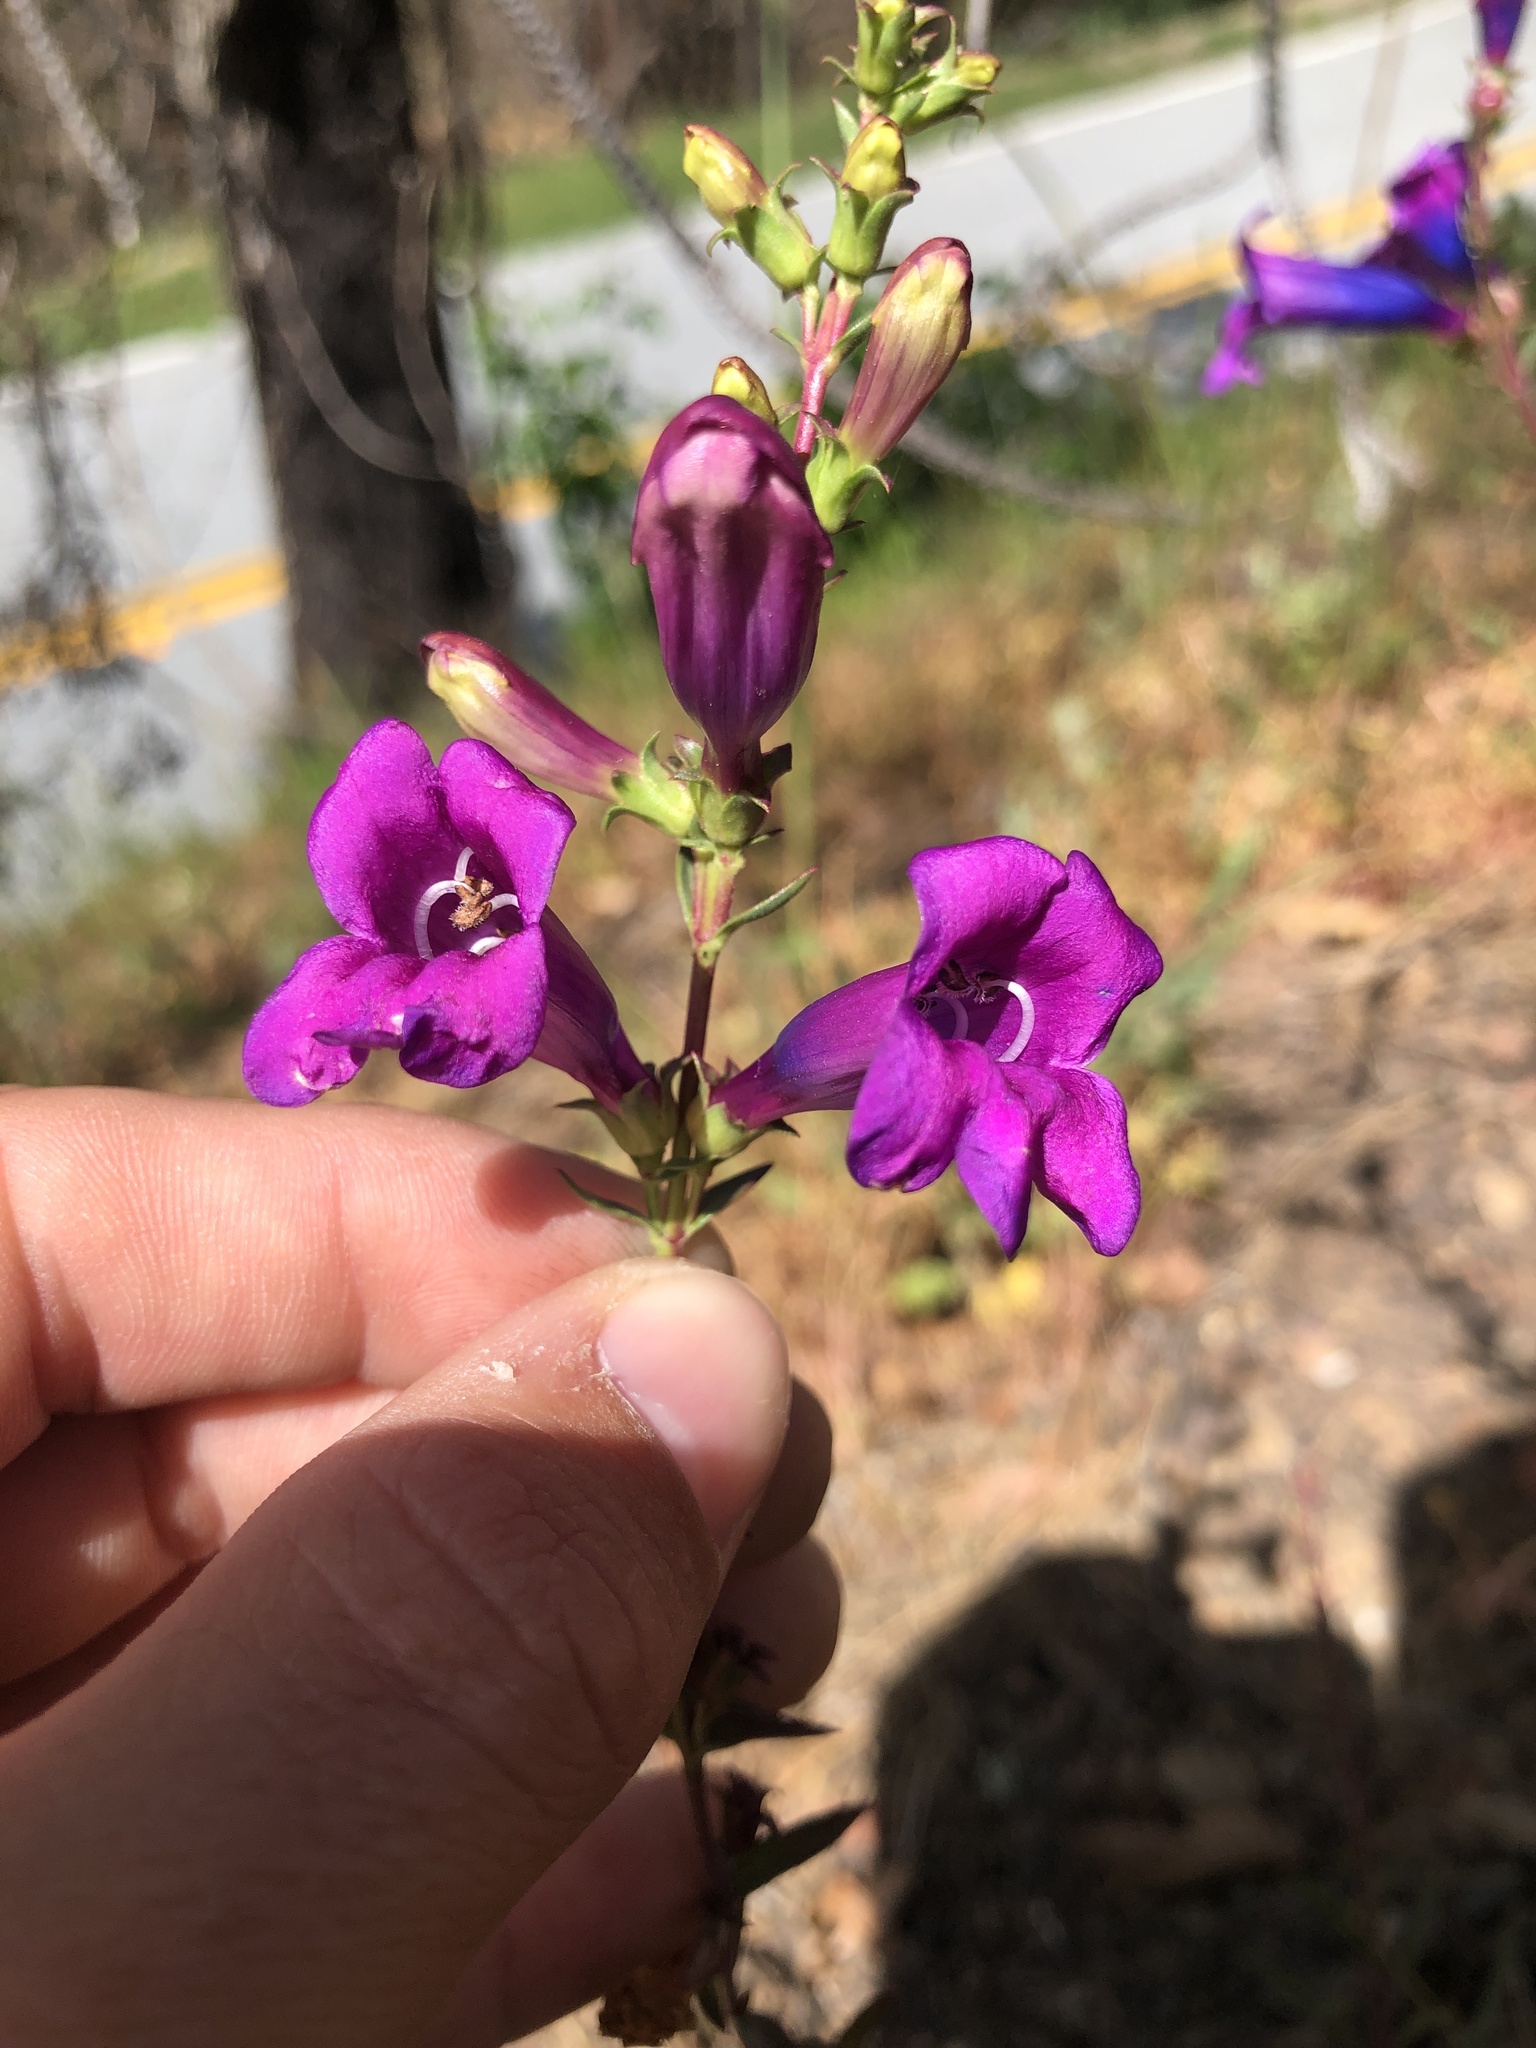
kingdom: Plantae
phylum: Tracheophyta
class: Magnoliopsida
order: Lamiales
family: Plantaginaceae
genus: Penstemon
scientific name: Penstemon heterophyllus
